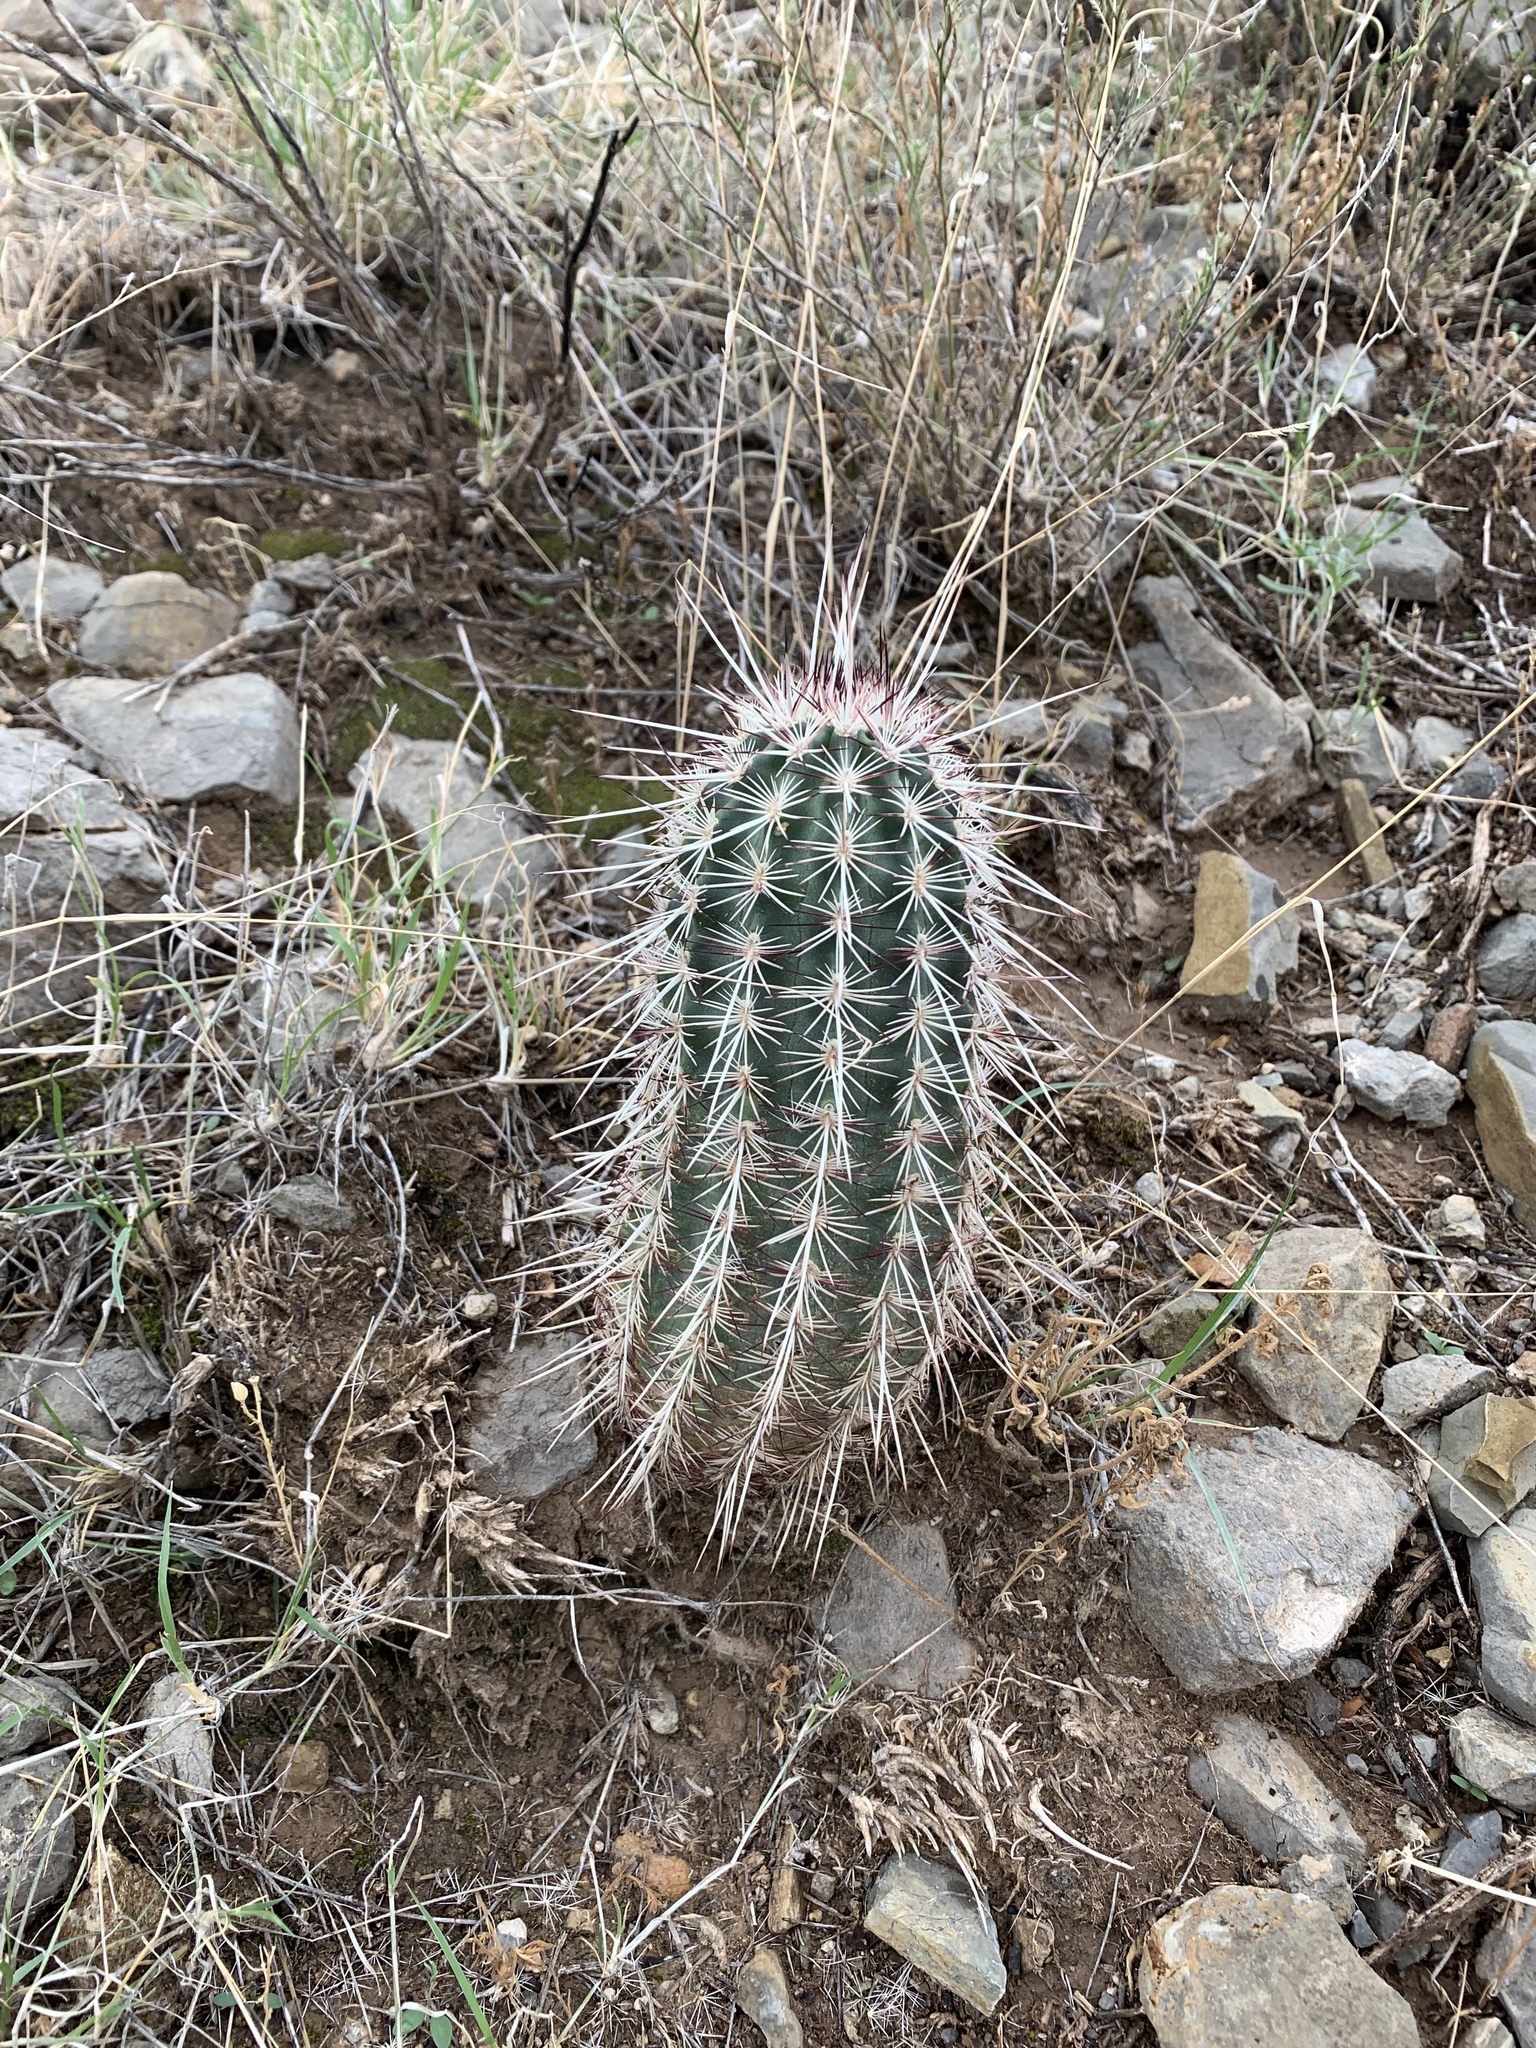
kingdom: Plantae
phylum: Tracheophyta
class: Magnoliopsida
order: Caryophyllales
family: Cactaceae
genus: Echinocereus
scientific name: Echinocereus viridiflorus
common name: Nylon hedgehog cactus
